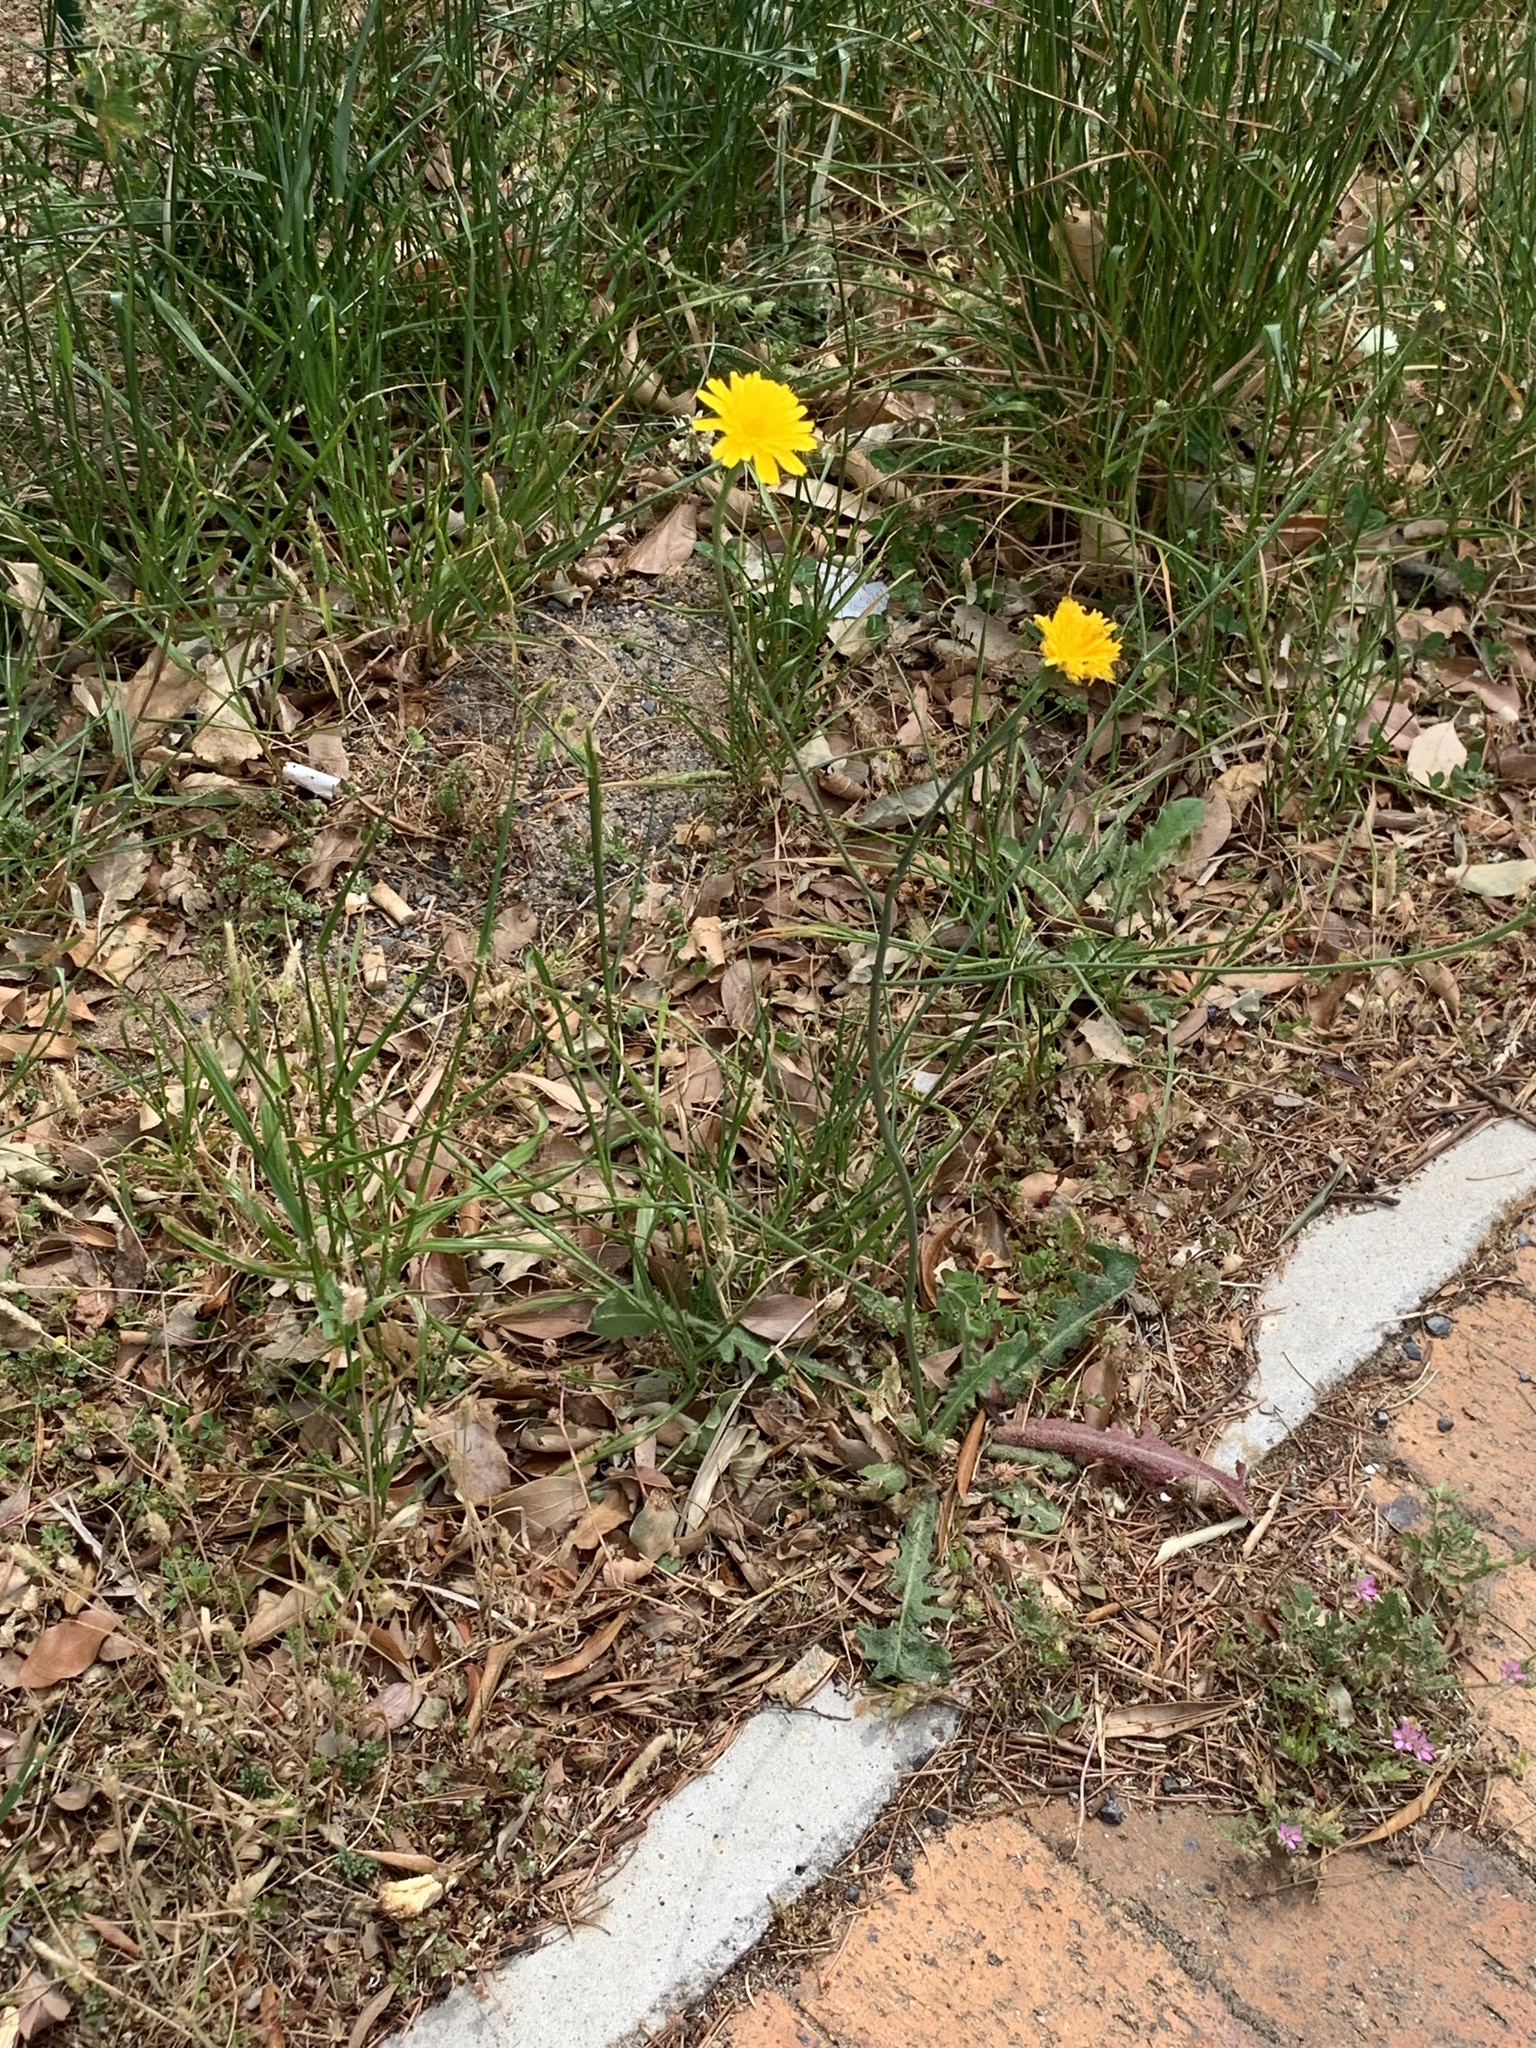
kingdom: Plantae
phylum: Tracheophyta
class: Magnoliopsida
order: Asterales
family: Asteraceae
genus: Hypochaeris
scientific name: Hypochaeris radicata
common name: Flatweed
